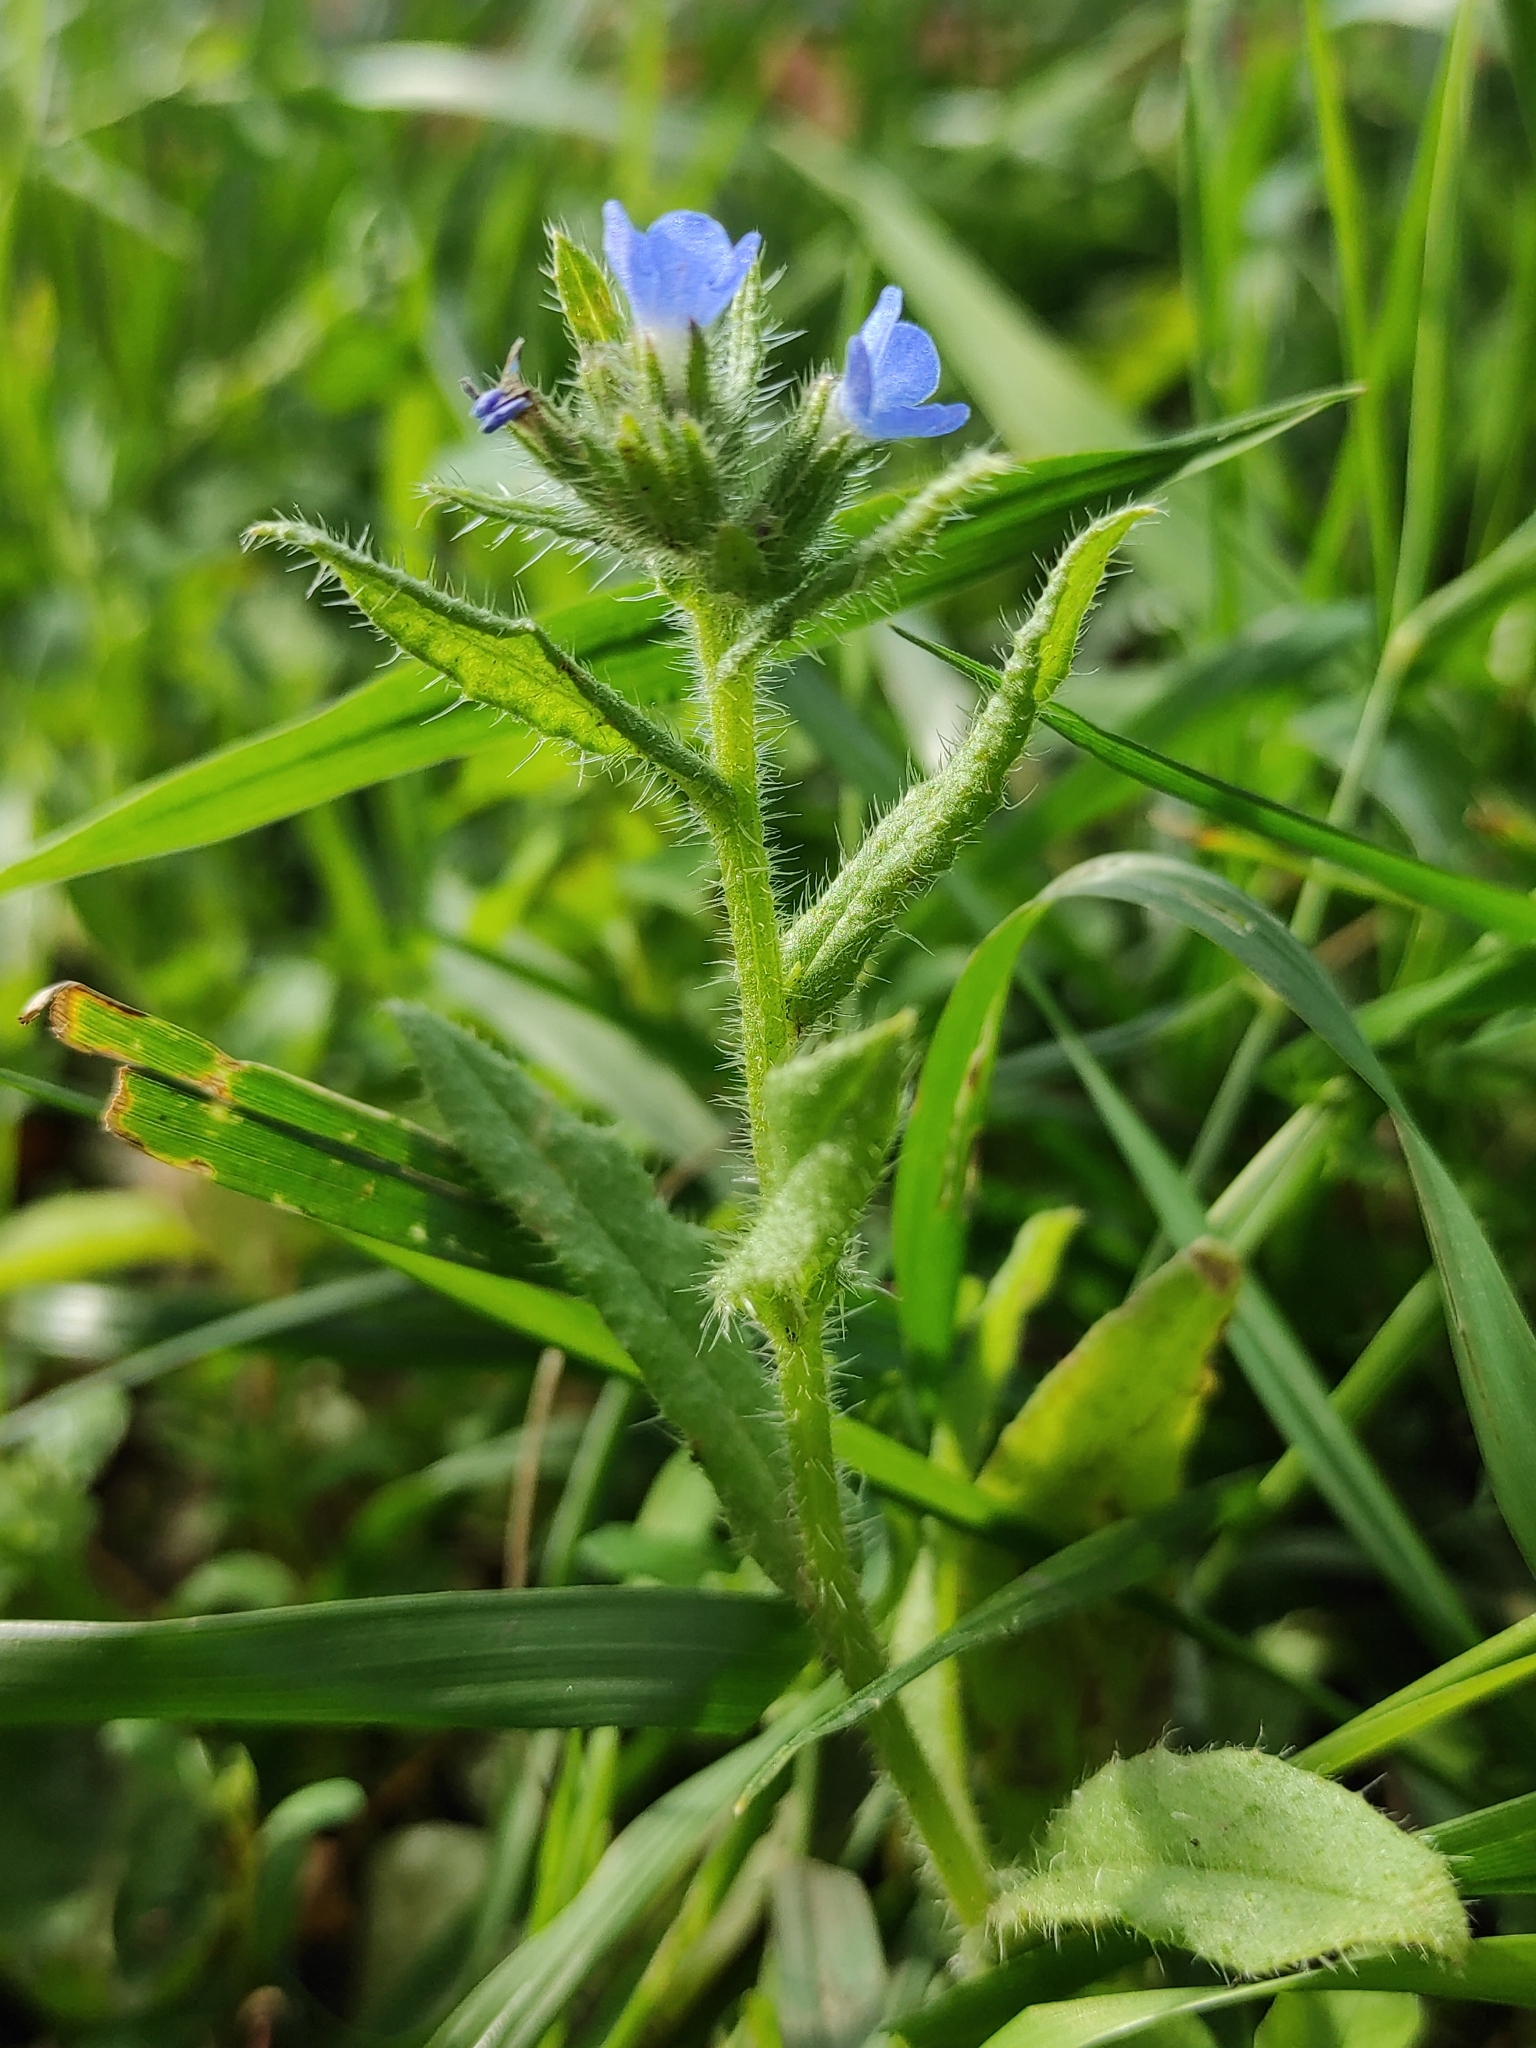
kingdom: Plantae
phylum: Tracheophyta
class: Magnoliopsida
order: Boraginales
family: Boraginaceae
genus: Lycopsis
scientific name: Lycopsis arvensis
